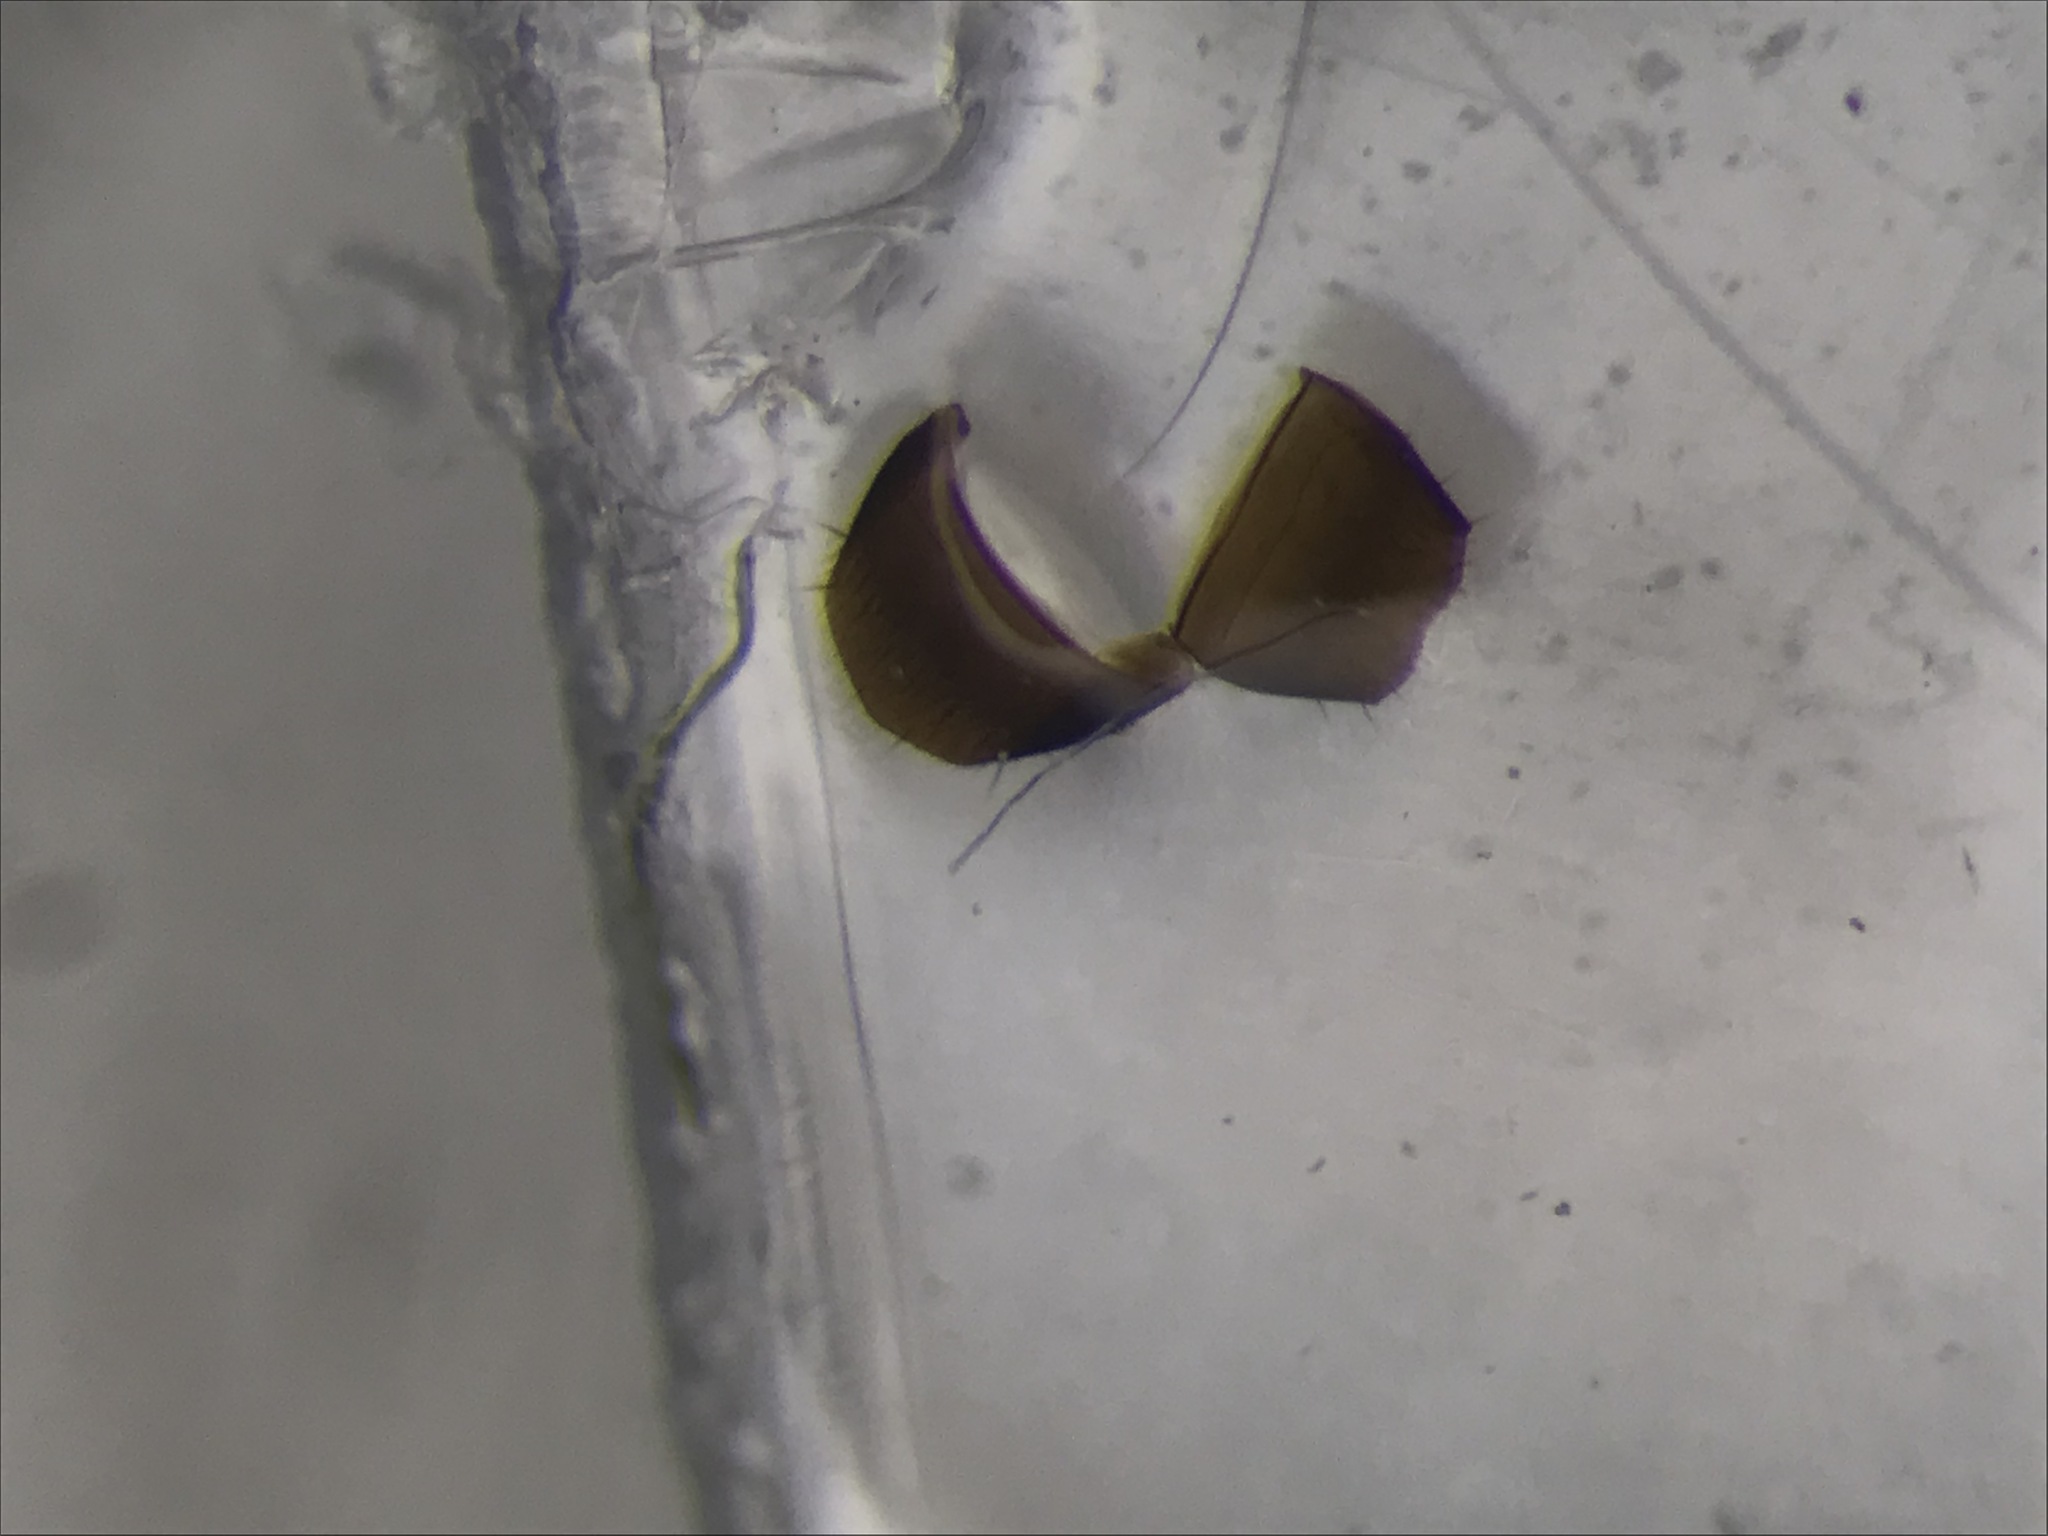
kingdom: Animalia
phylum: Arthropoda
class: Insecta
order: Coleoptera
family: Staphylinidae
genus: Leptusa
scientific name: Leptusa jucunda
